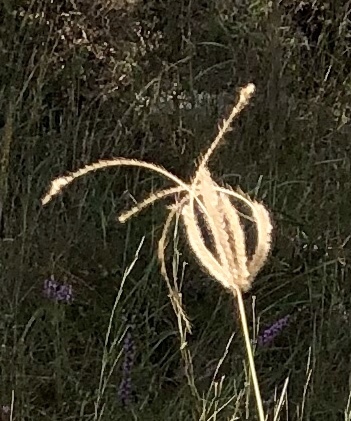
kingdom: Plantae
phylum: Tracheophyta
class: Liliopsida
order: Poales
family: Poaceae
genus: Stapfochloa
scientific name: Stapfochloa canterae
